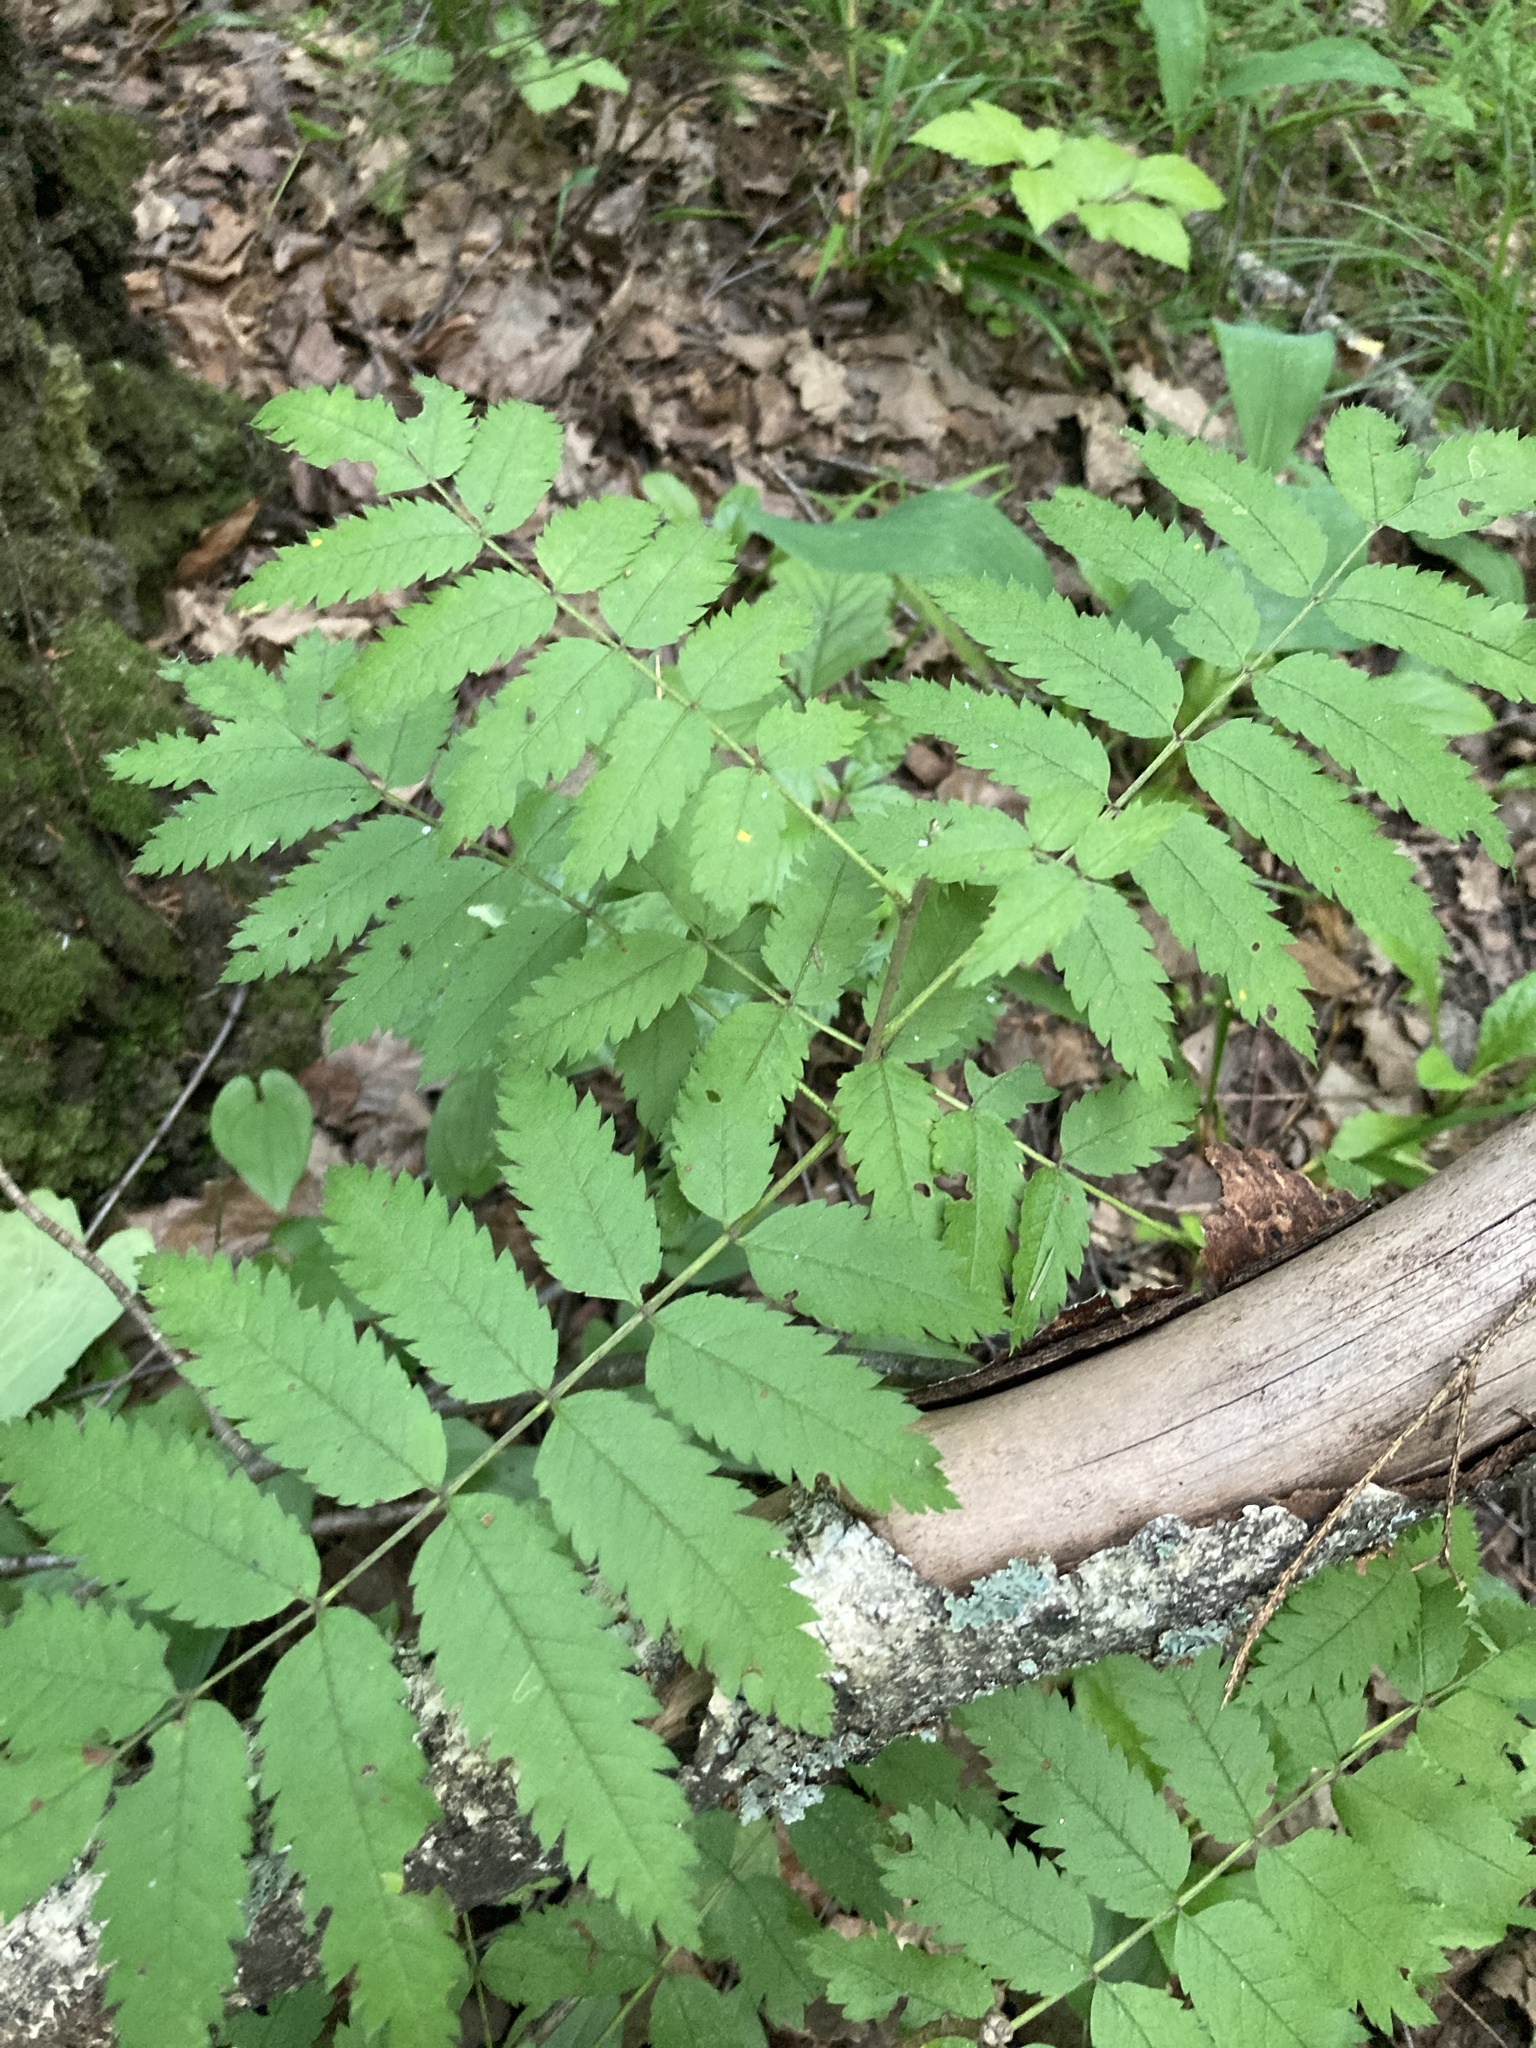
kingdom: Plantae
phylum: Tracheophyta
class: Magnoliopsida
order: Rosales
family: Rosaceae
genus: Sorbus
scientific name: Sorbus aucuparia
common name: Rowan
